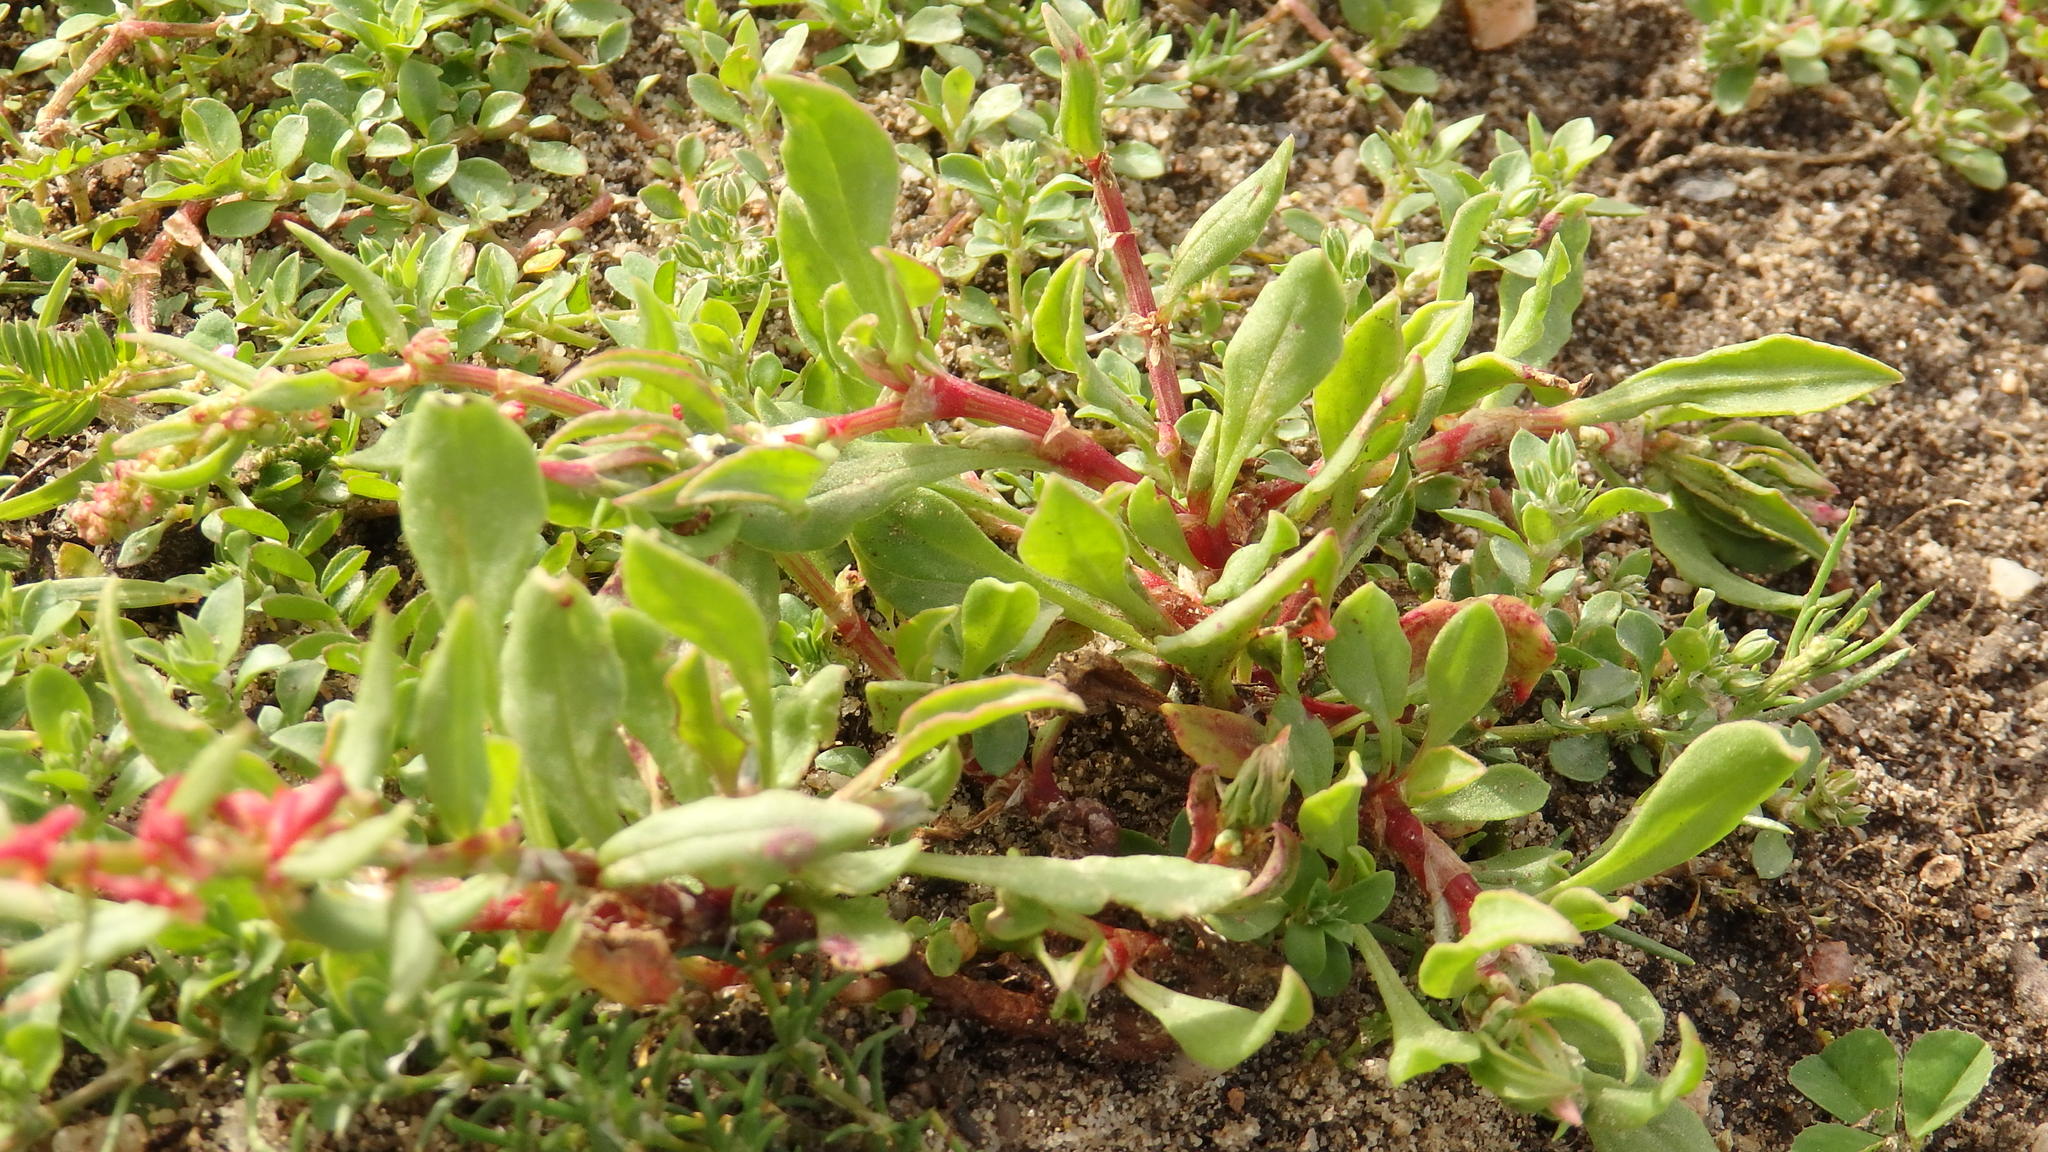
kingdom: Plantae
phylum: Tracheophyta
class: Magnoliopsida
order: Caryophyllales
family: Polygonaceae
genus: Rumex
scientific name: Rumex bucephalophorus
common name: Red dock
